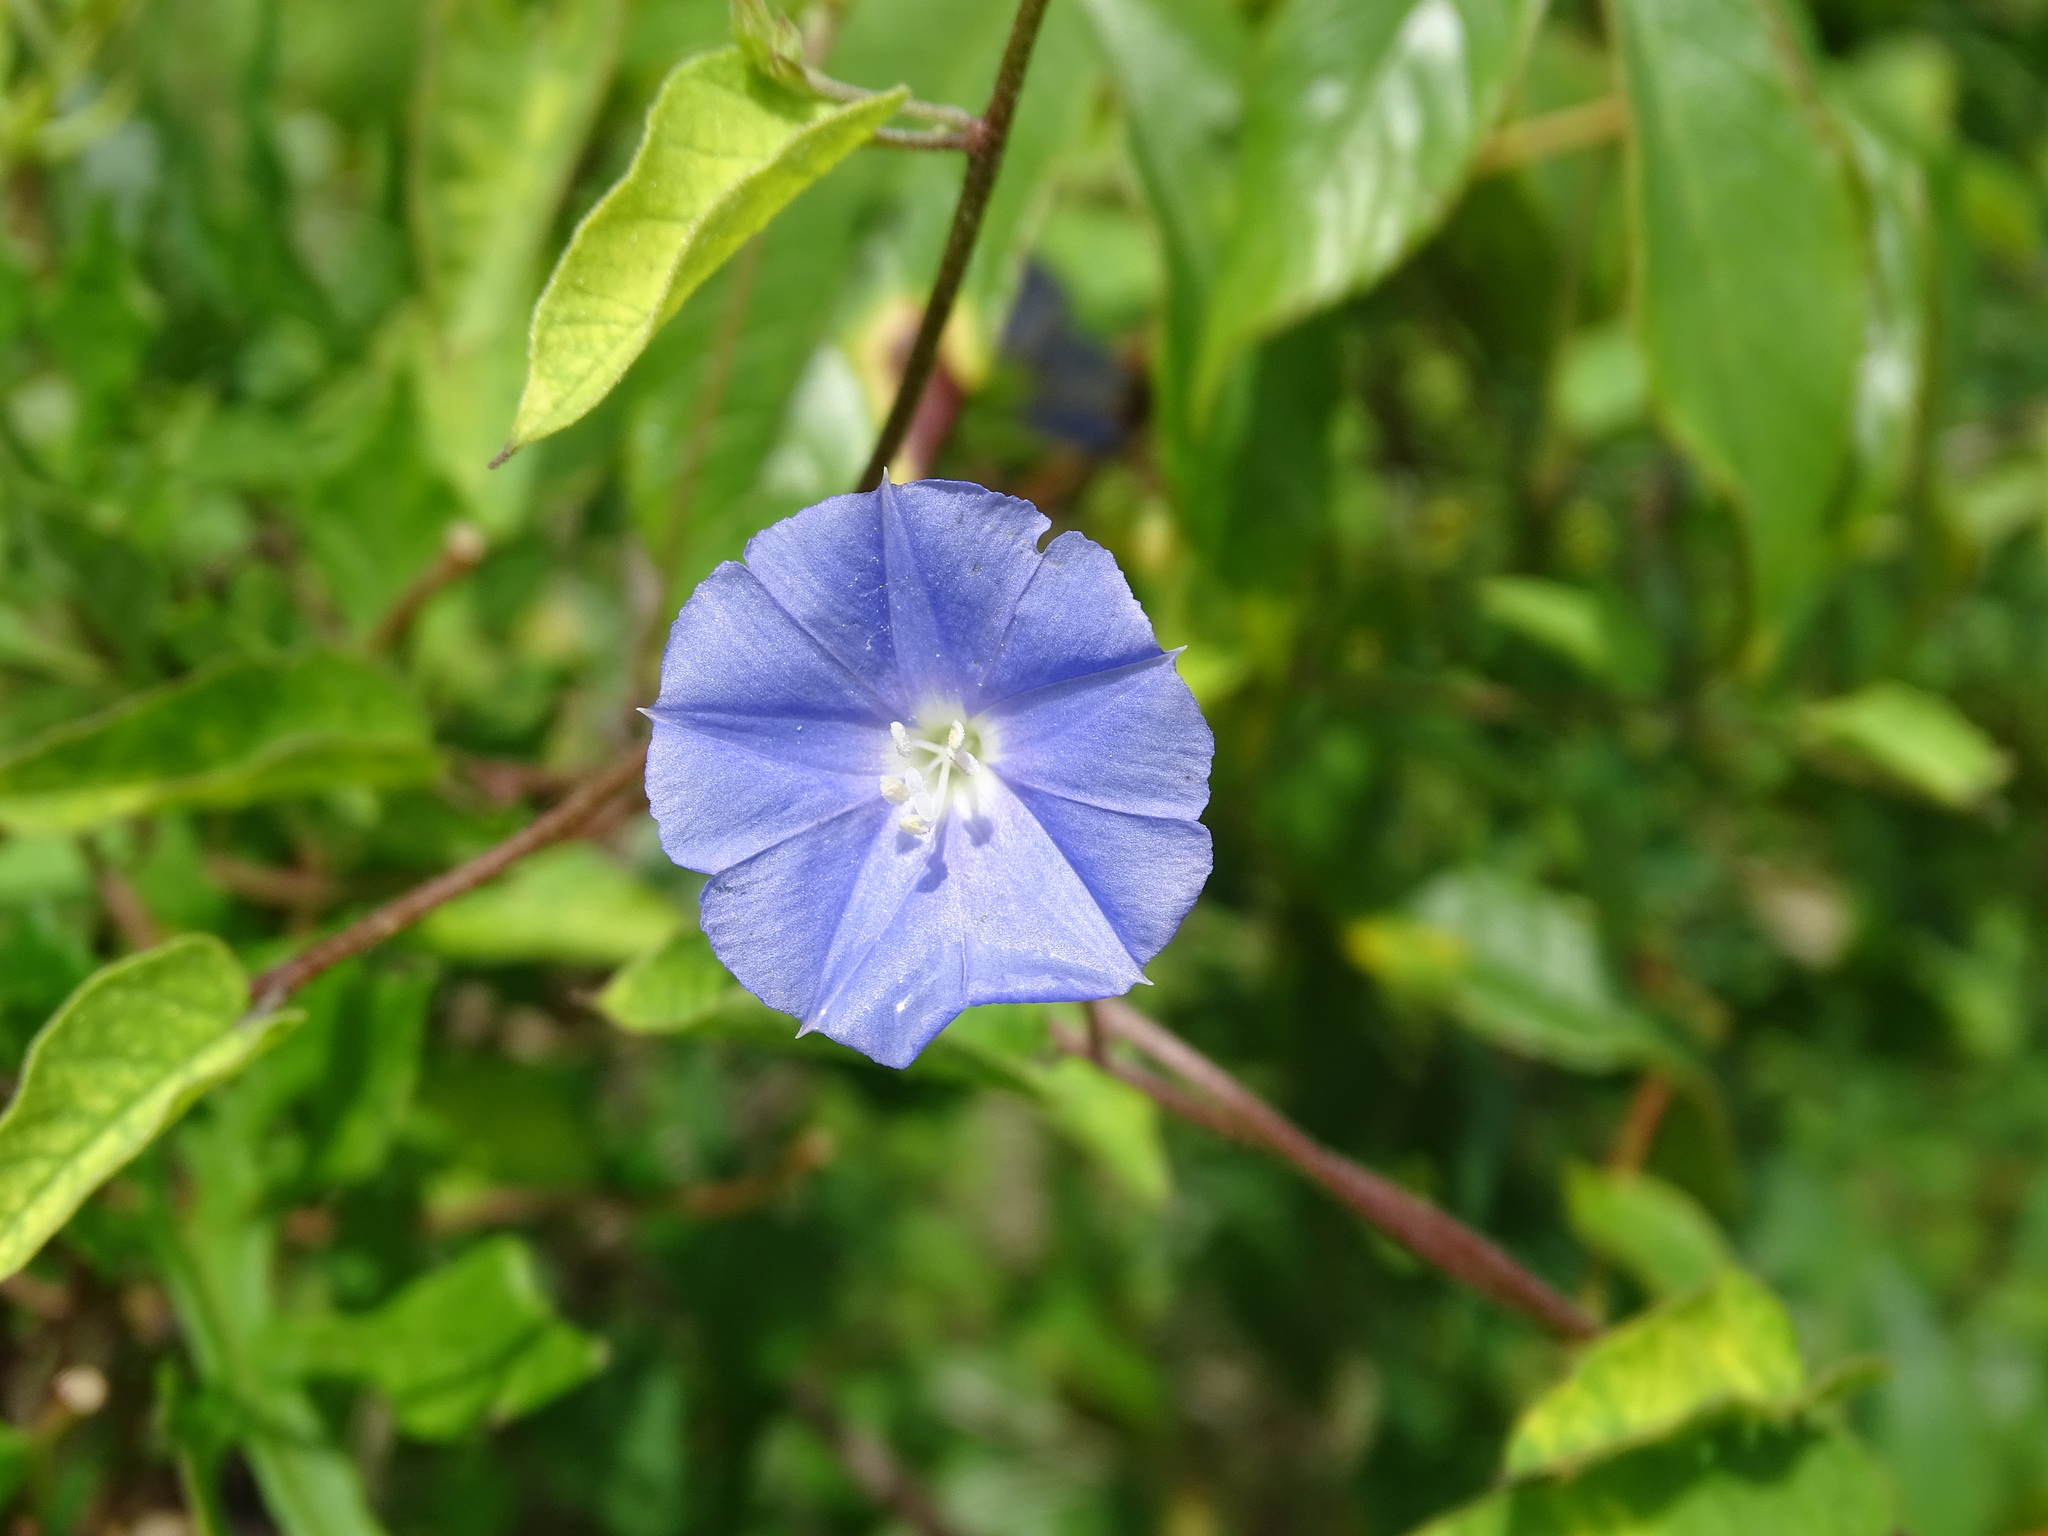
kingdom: Plantae
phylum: Tracheophyta
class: Magnoliopsida
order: Solanales
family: Convolvulaceae
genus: Jacquemontia
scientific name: Jacquemontia pentanthos
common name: Skyblue clustervine
